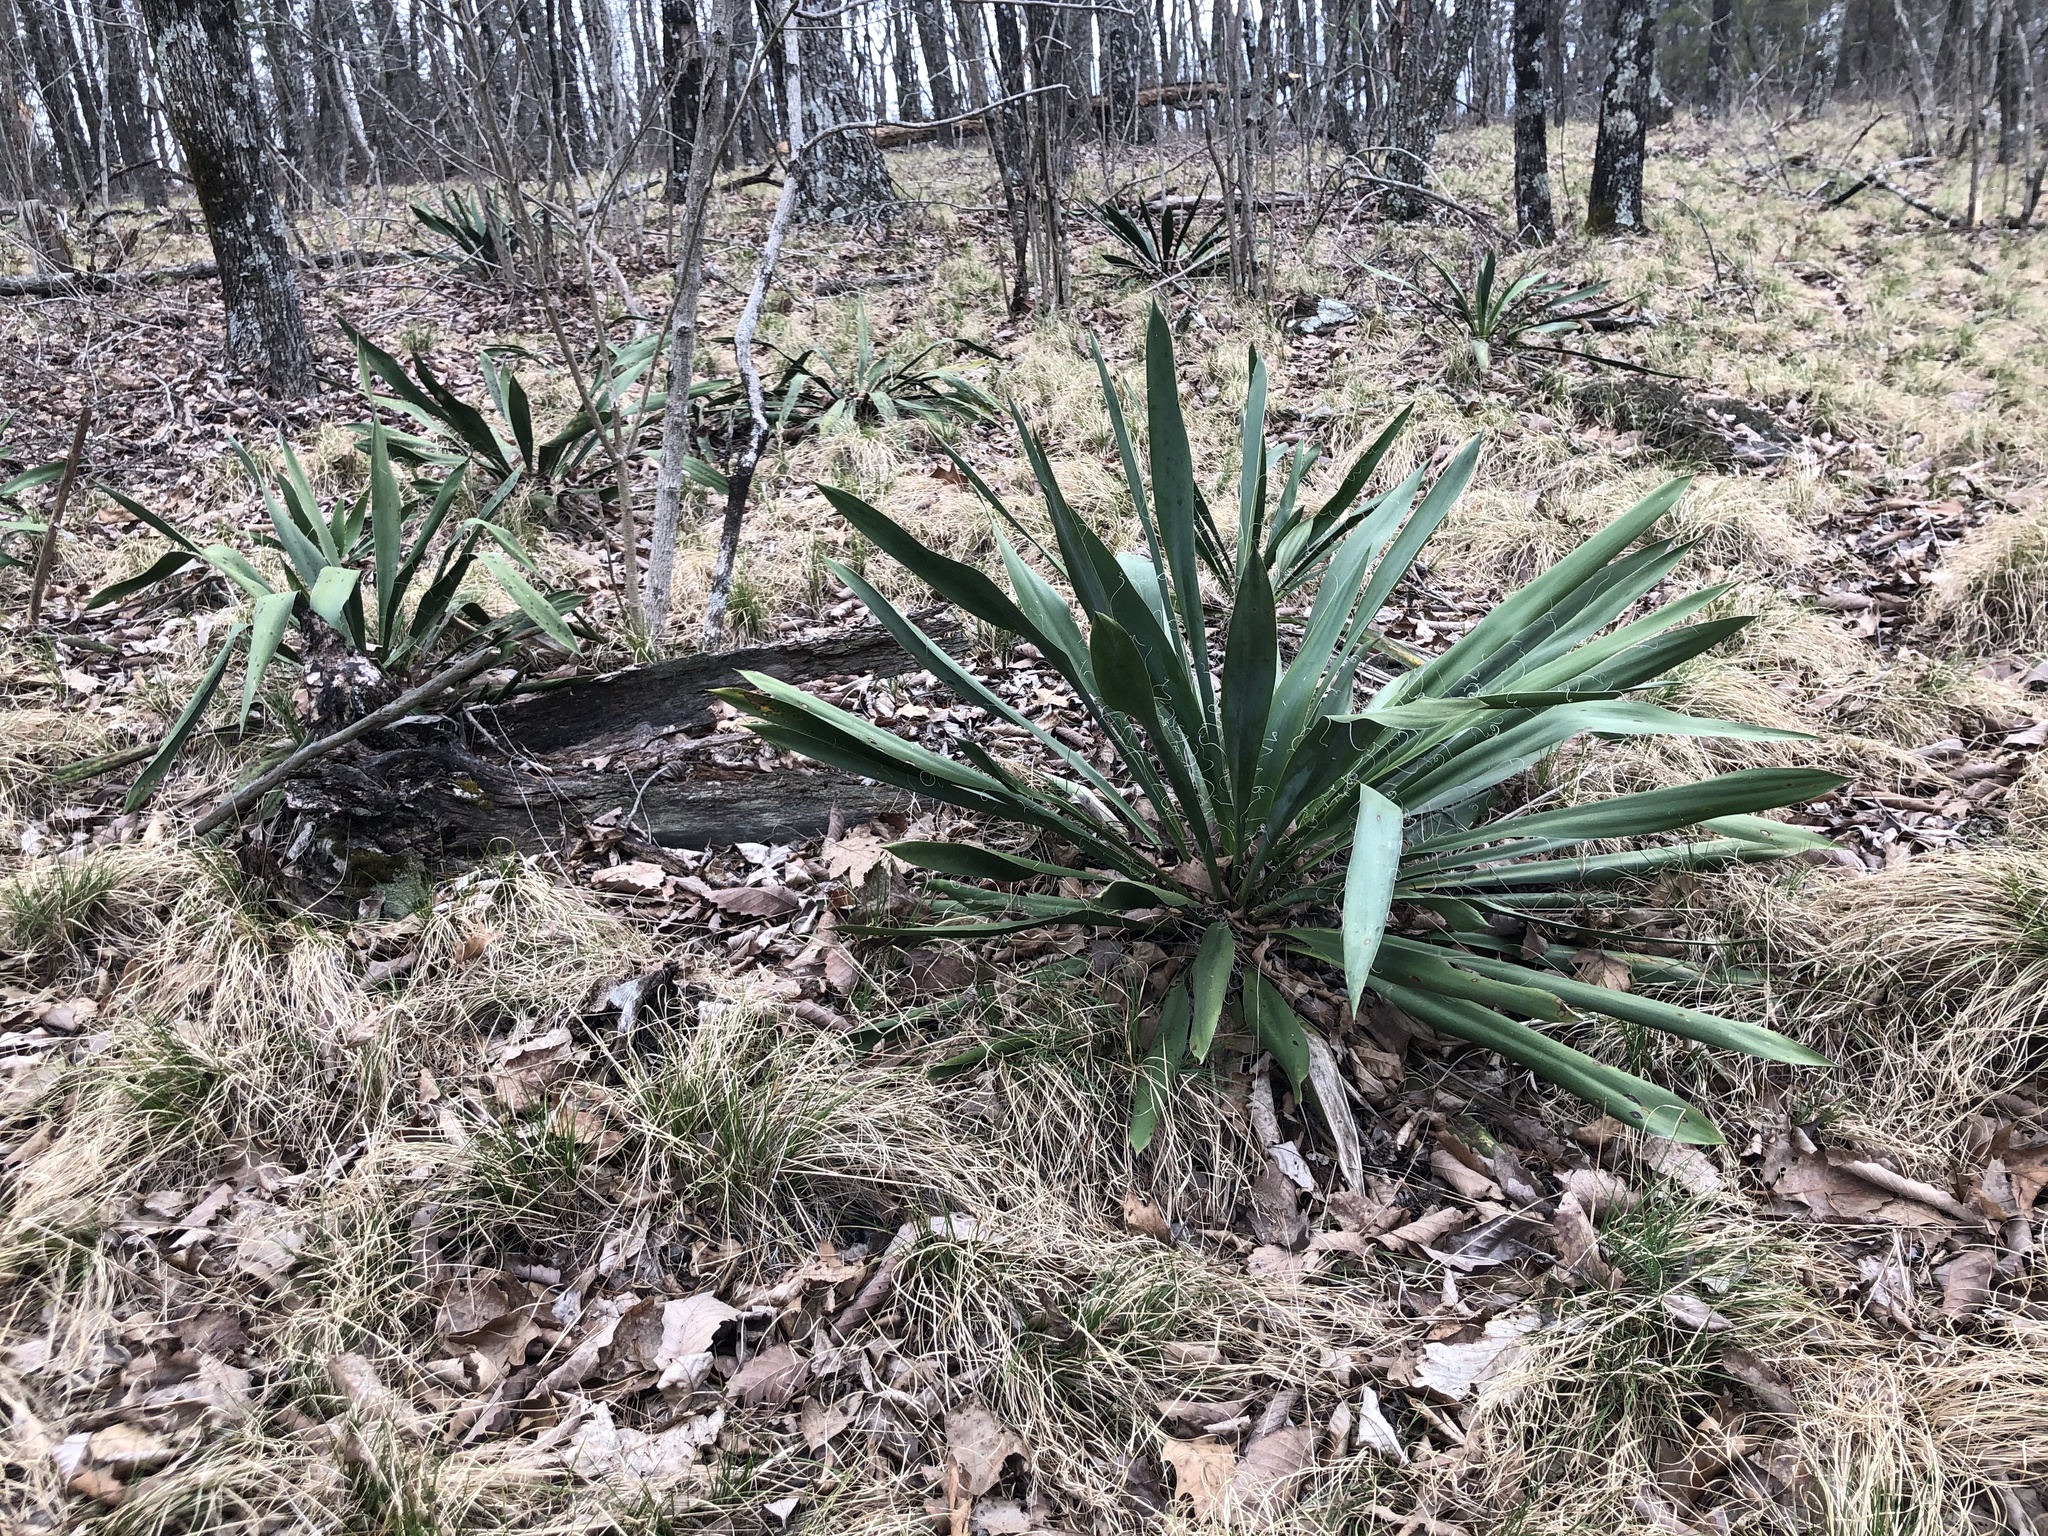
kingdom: Plantae
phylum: Tracheophyta
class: Liliopsida
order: Asparagales
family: Asparagaceae
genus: Yucca
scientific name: Yucca filamentosa
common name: Adam's-needle
